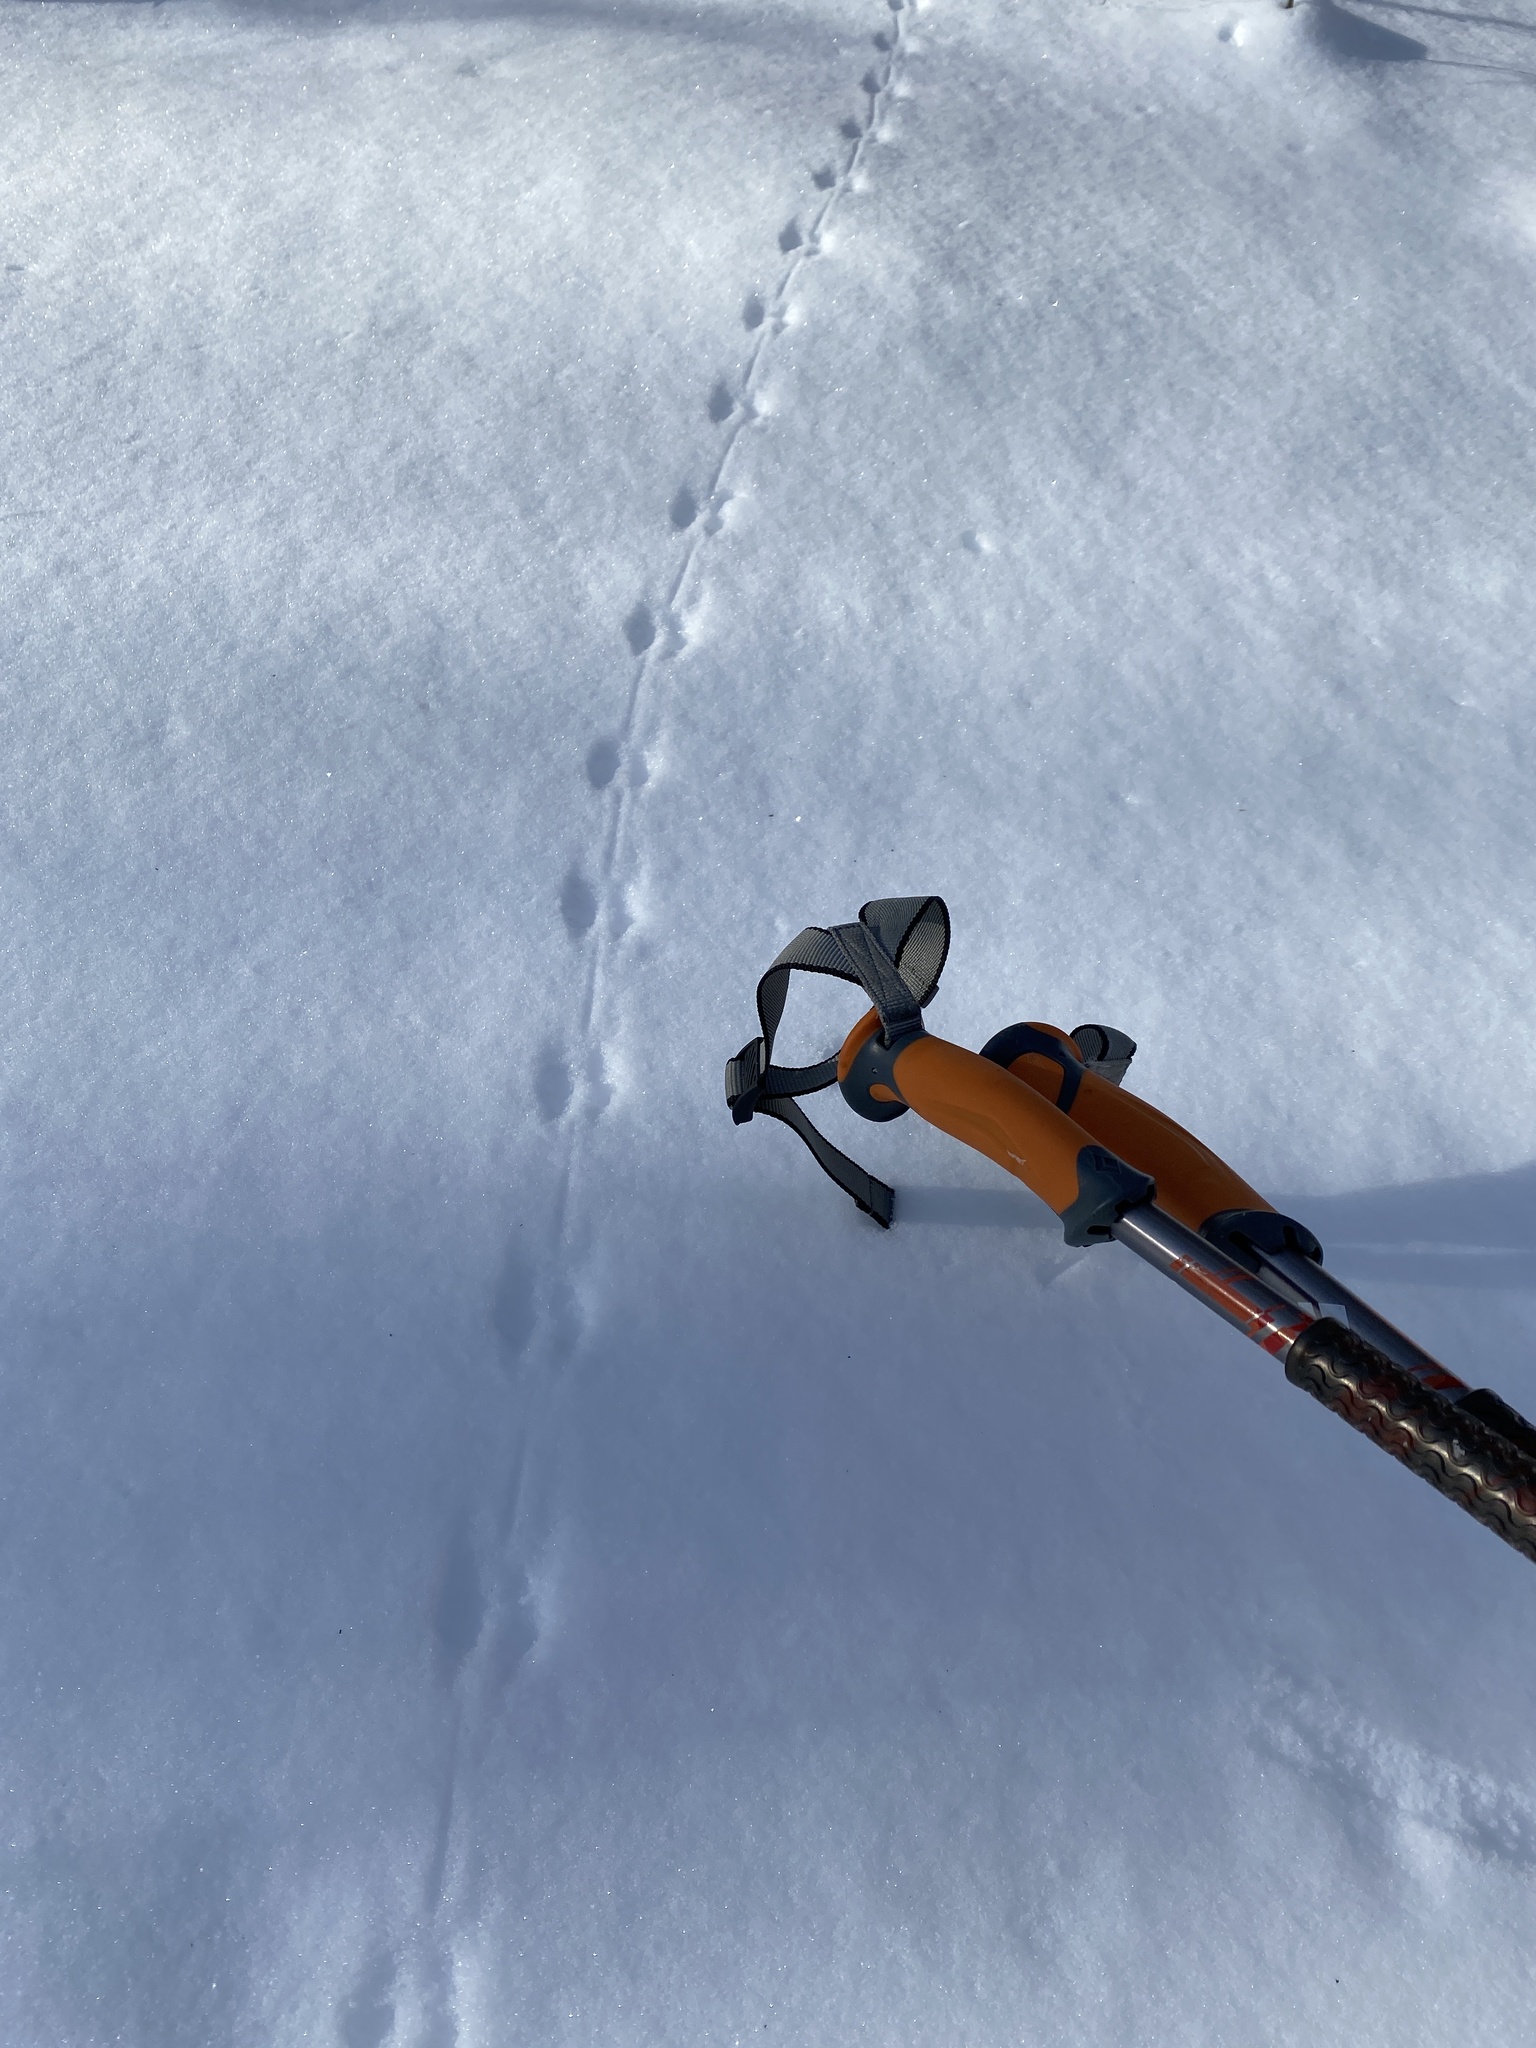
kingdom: Animalia
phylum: Chordata
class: Mammalia
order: Rodentia
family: Cricetidae
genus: Peromyscus
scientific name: Peromyscus
